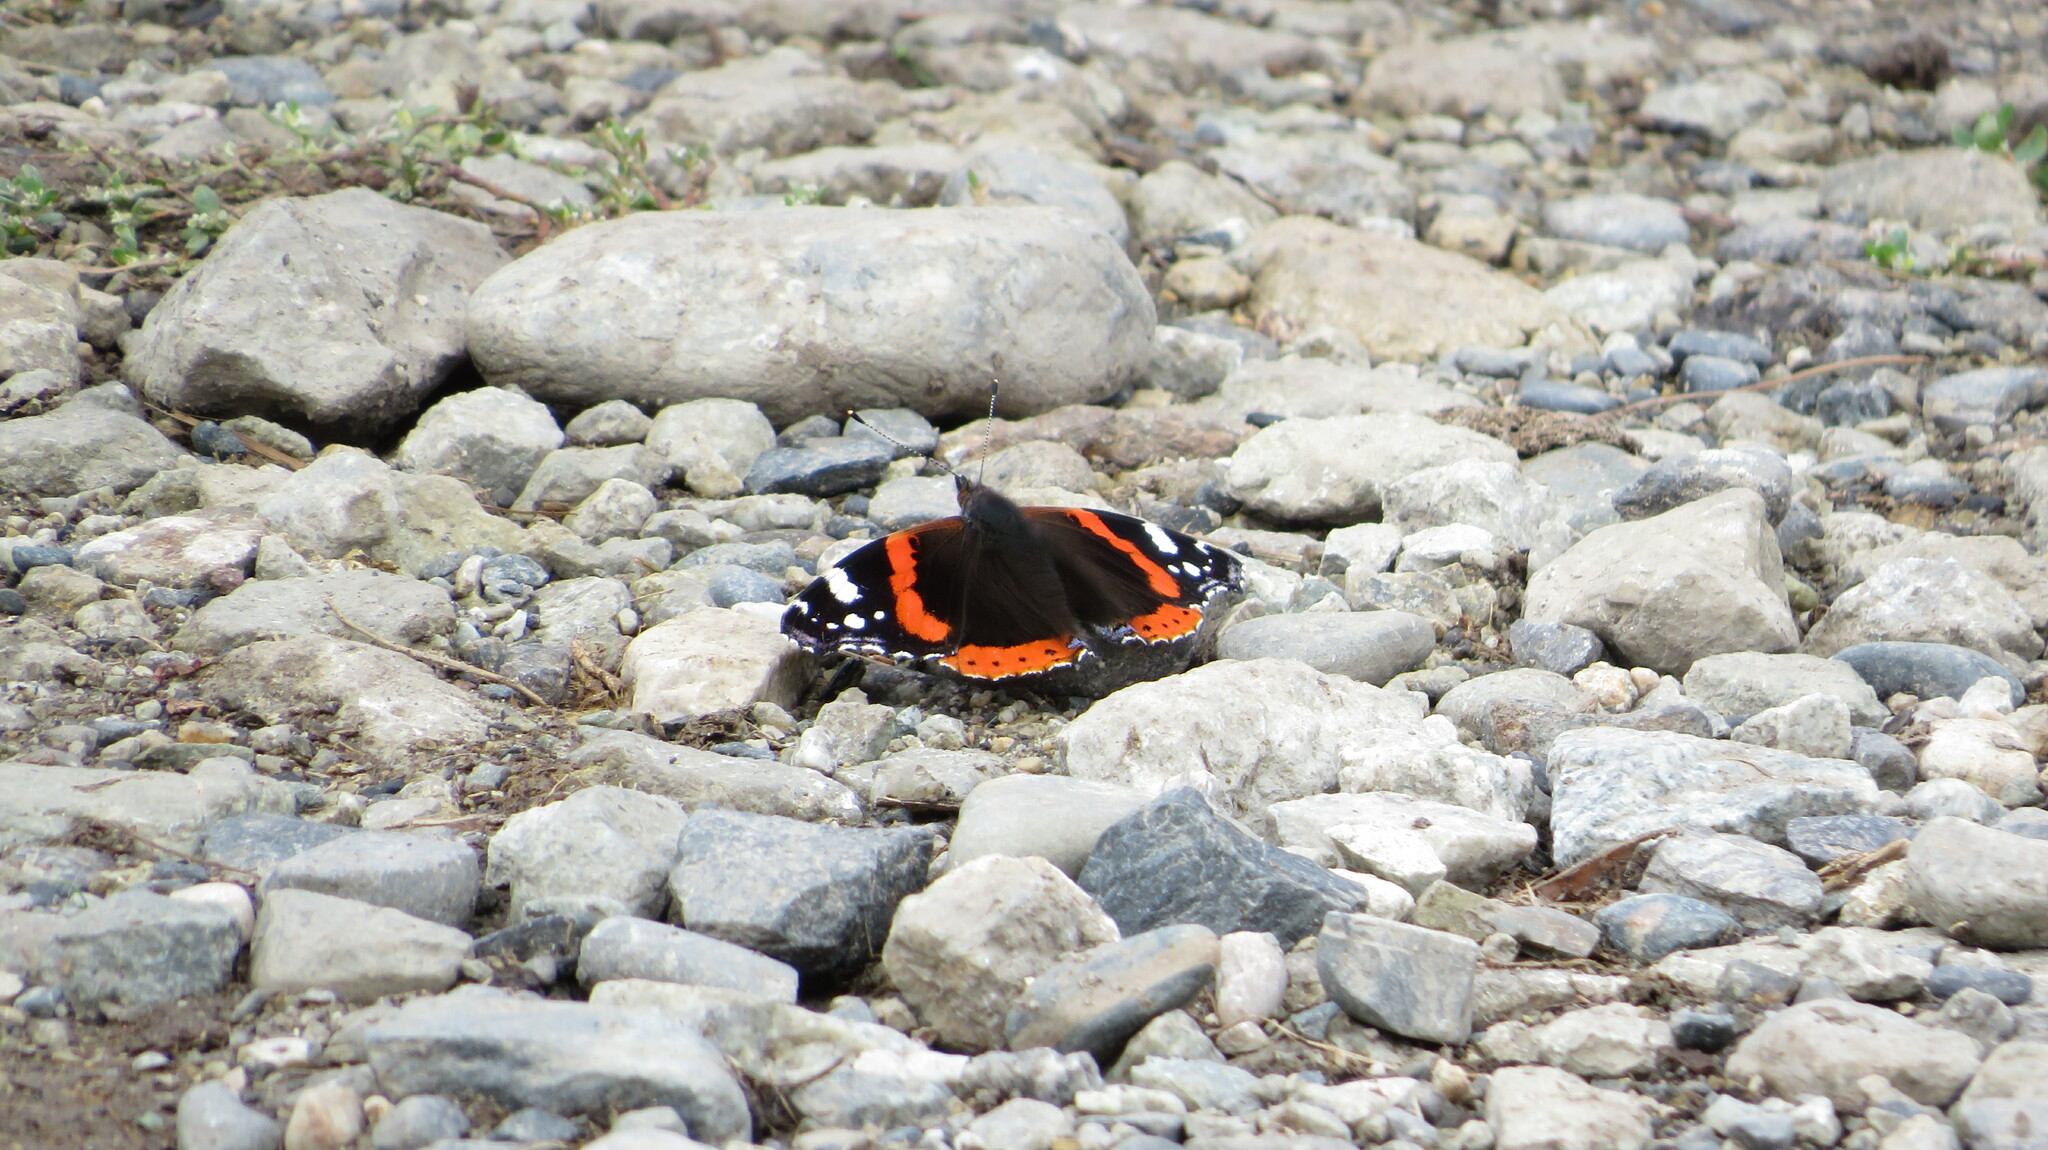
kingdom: Animalia
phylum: Arthropoda
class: Insecta
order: Lepidoptera
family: Nymphalidae
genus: Vanessa
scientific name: Vanessa atalanta
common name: Red admiral
